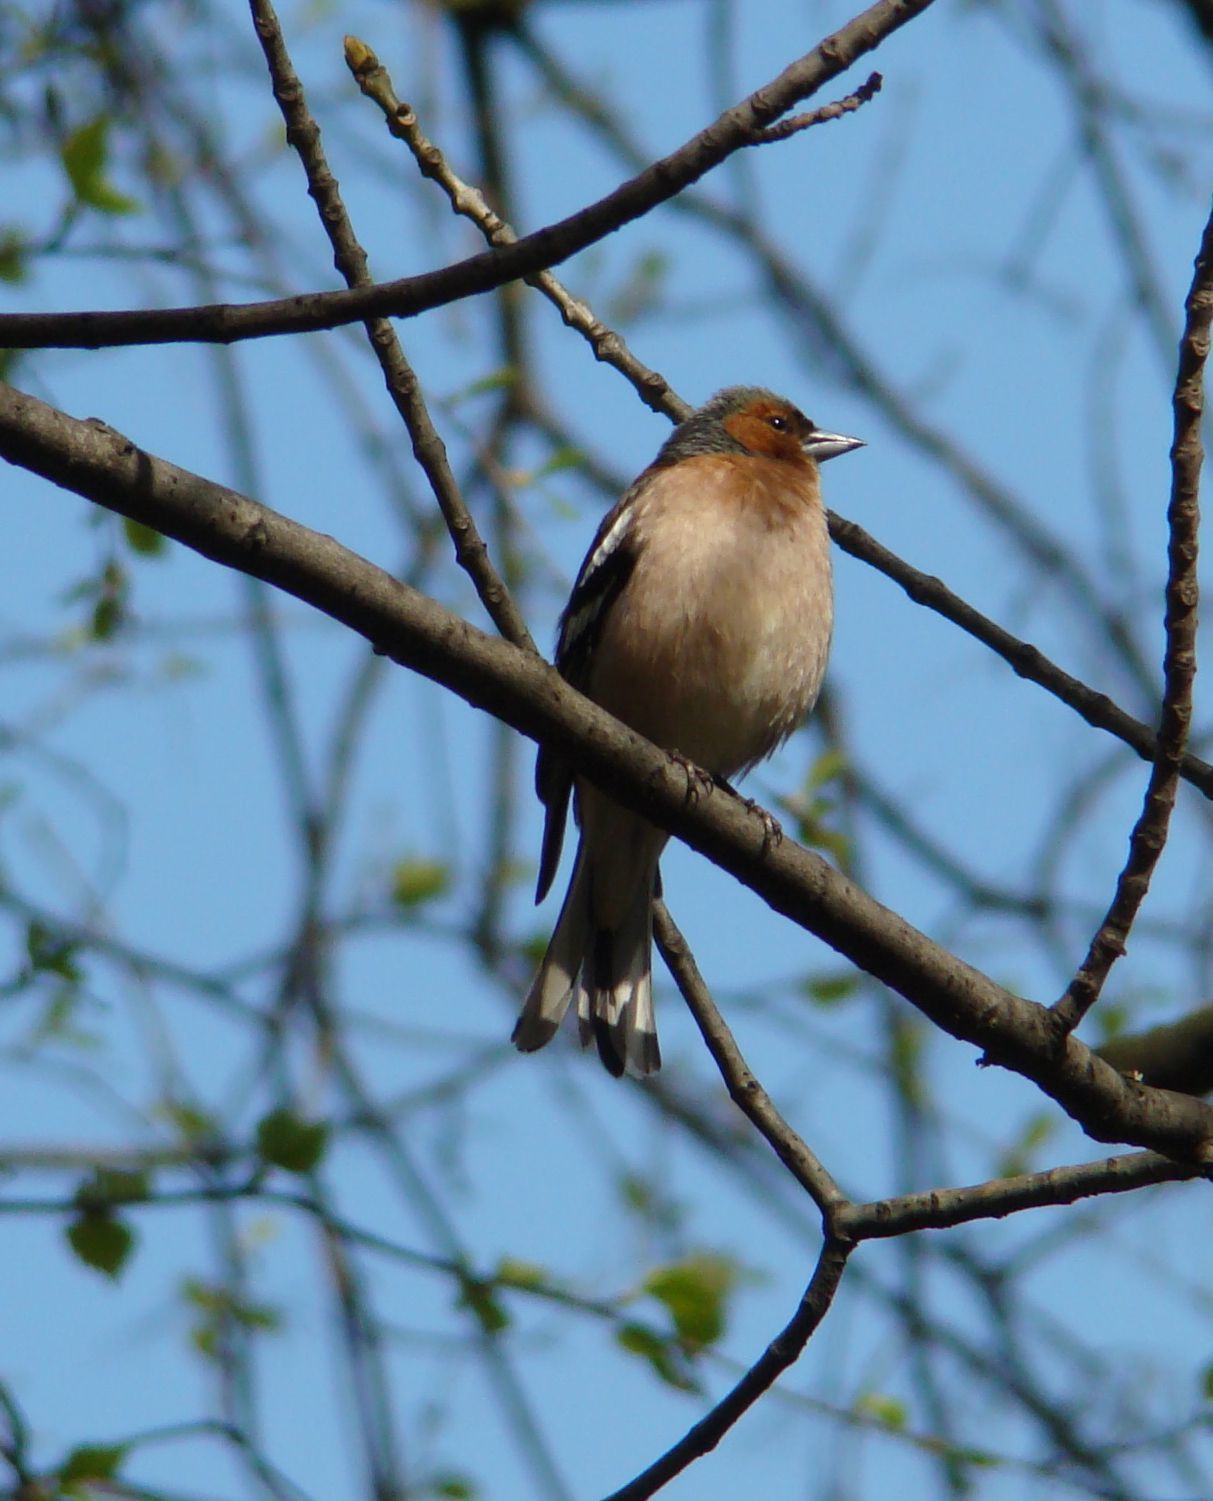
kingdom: Animalia
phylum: Chordata
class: Aves
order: Passeriformes
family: Fringillidae
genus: Fringilla
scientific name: Fringilla coelebs
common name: Common chaffinch
